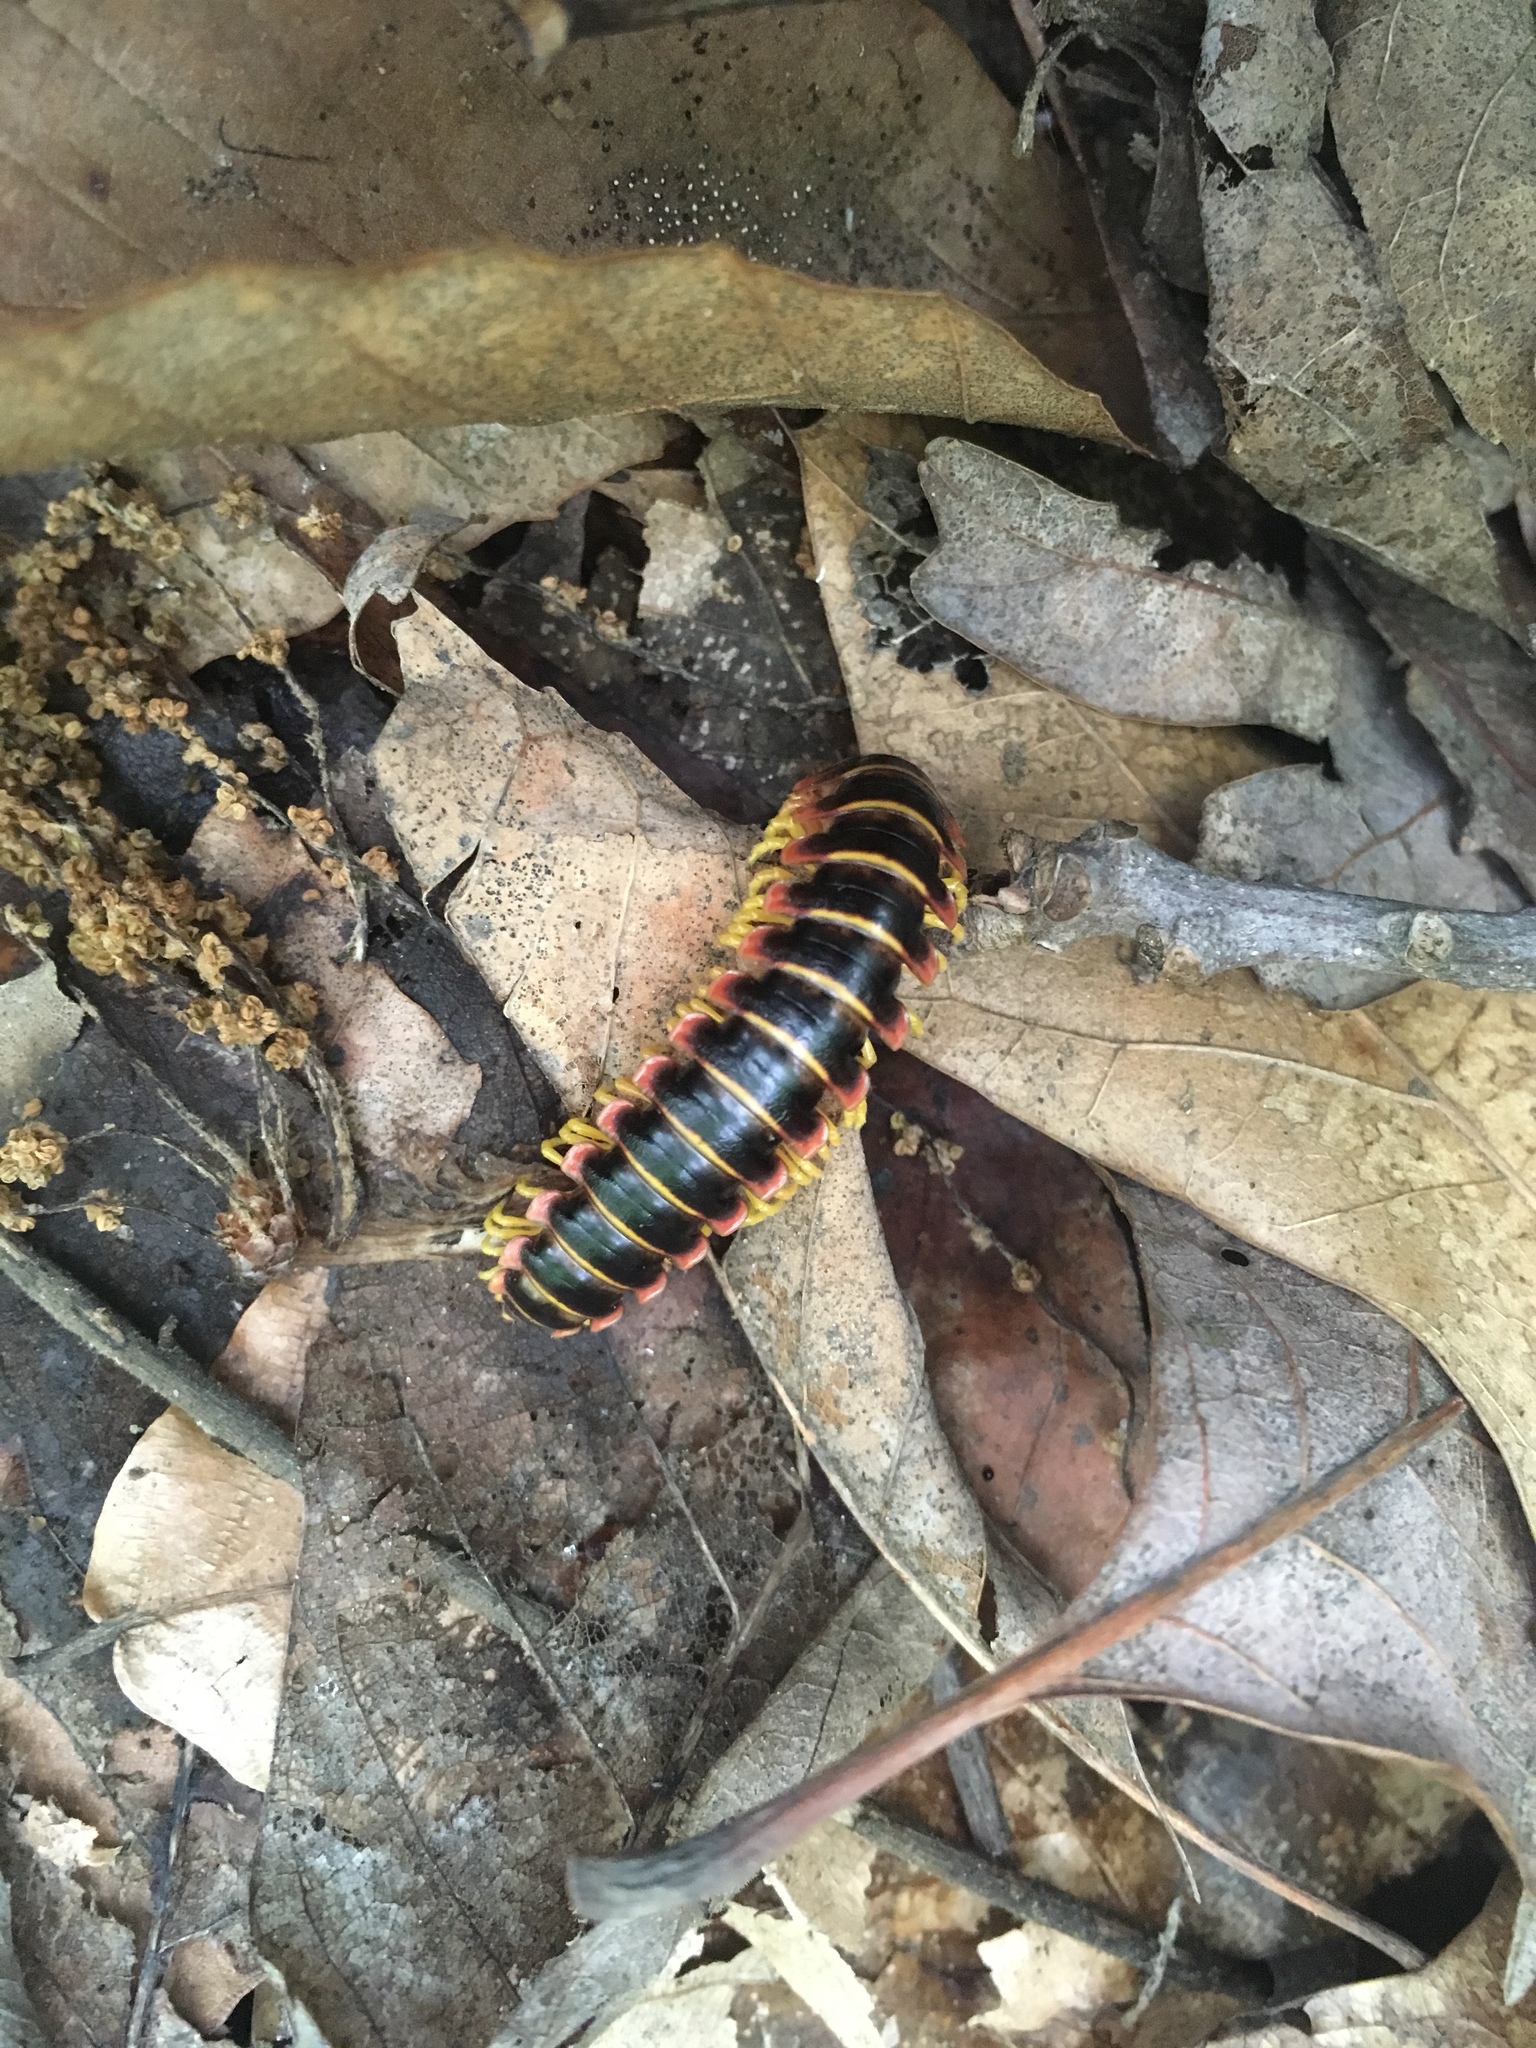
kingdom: Animalia
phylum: Arthropoda
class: Diplopoda
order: Polydesmida
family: Xystodesmidae
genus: Apheloria
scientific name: Apheloria virginiensis
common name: Black-and-gold flat millipede
